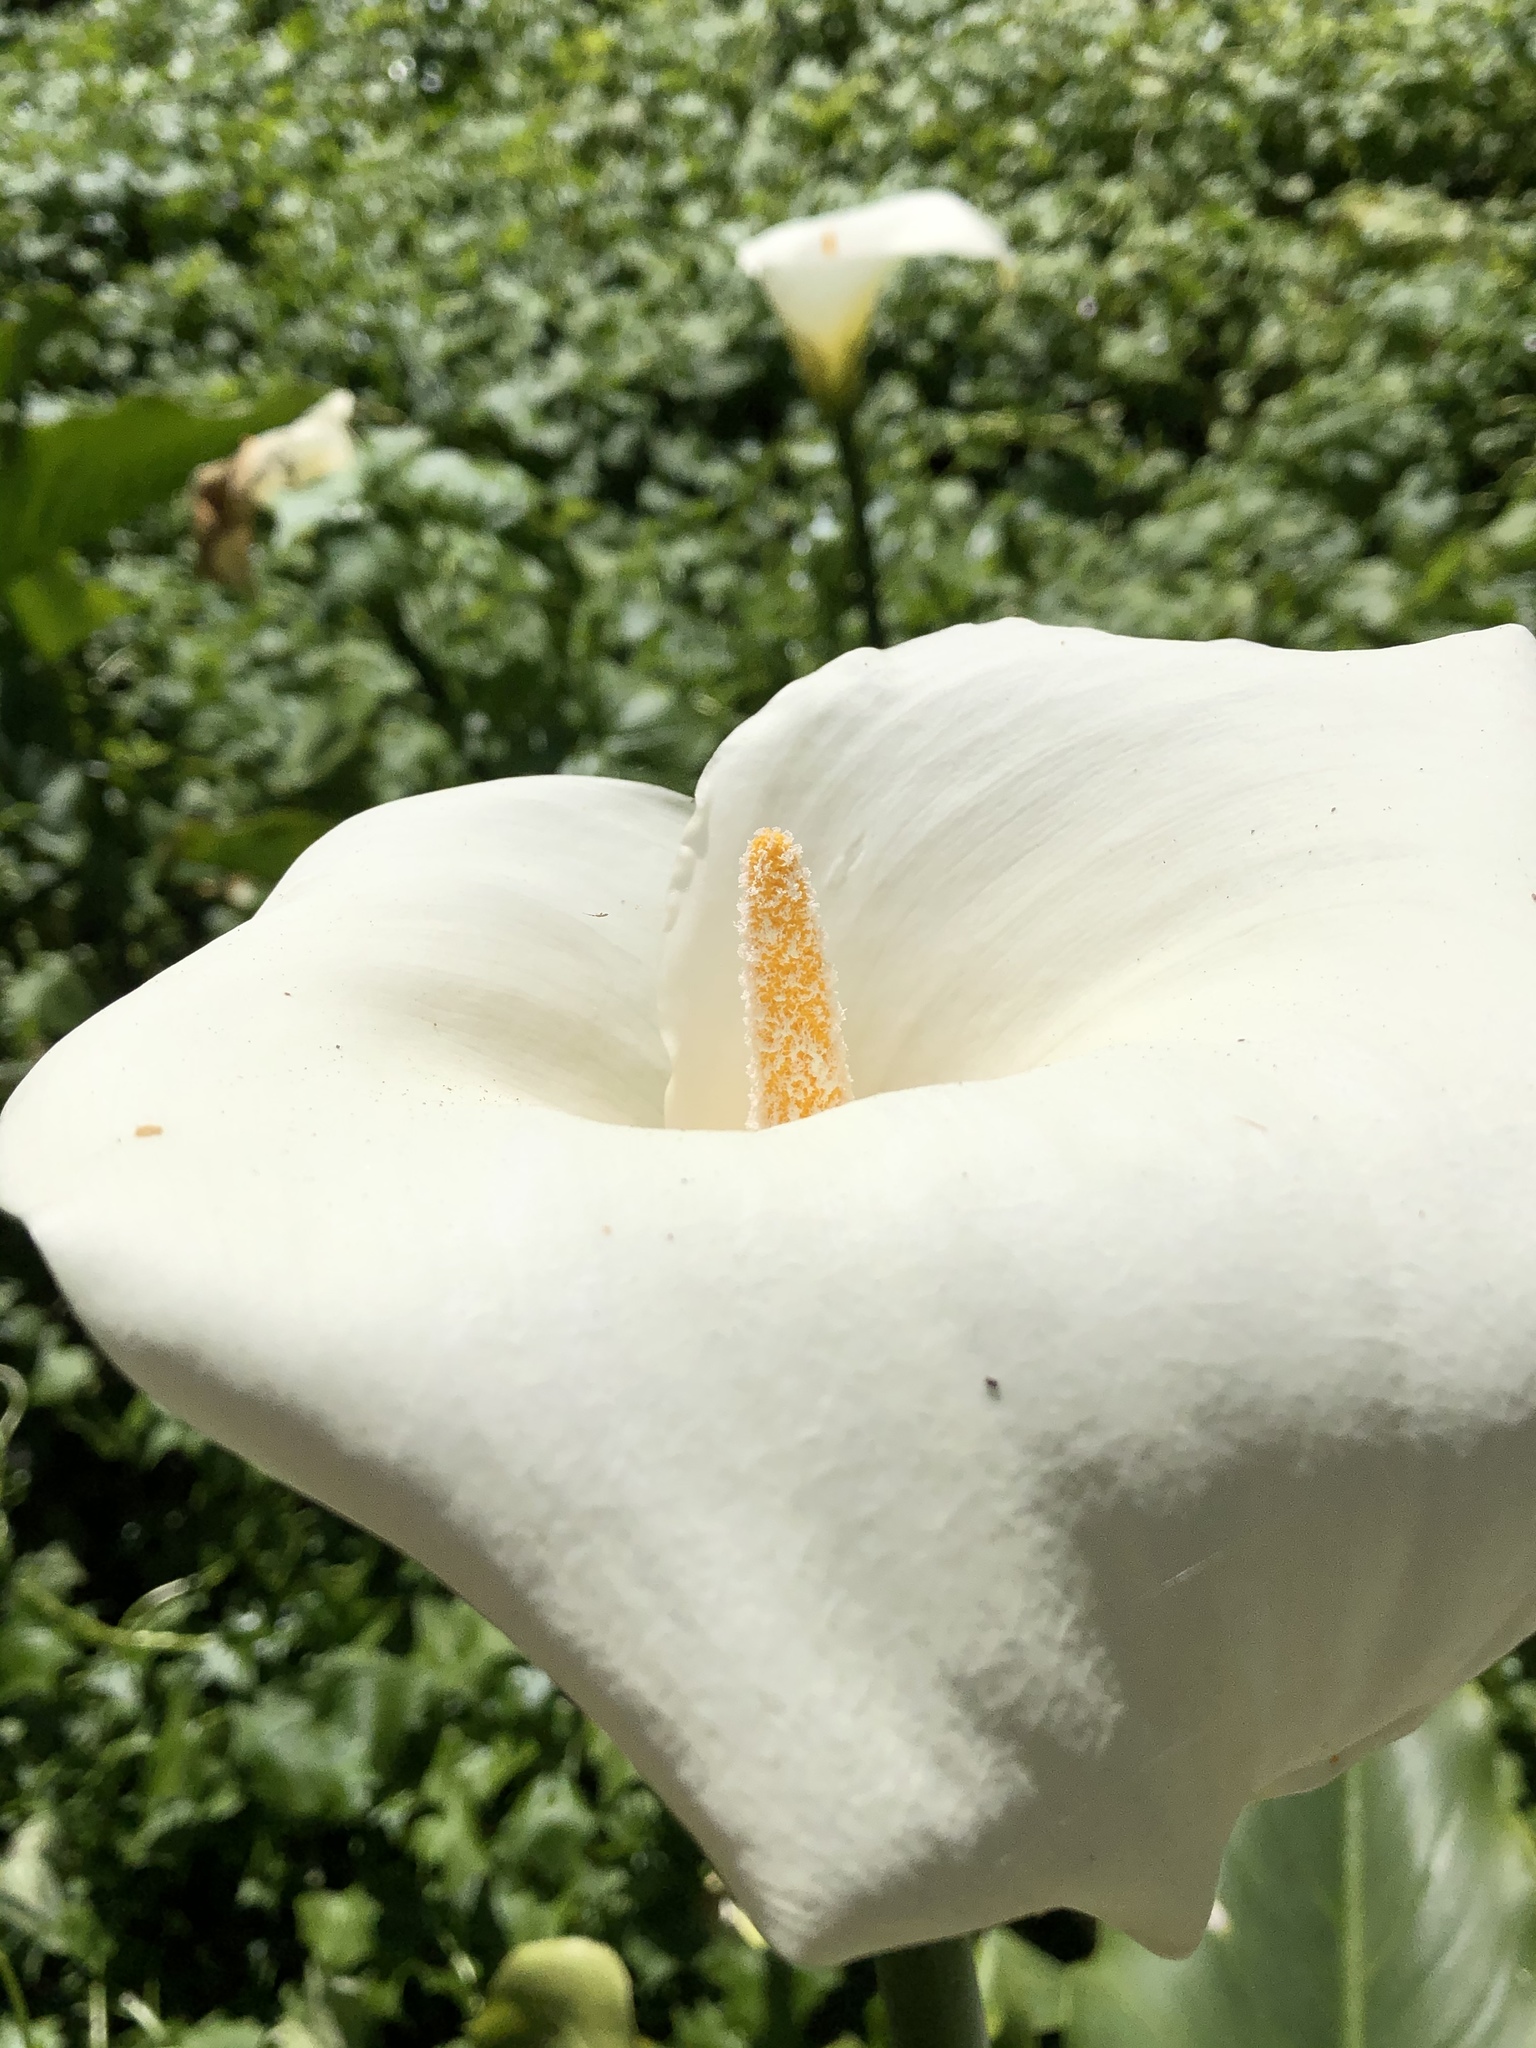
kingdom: Plantae
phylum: Tracheophyta
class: Liliopsida
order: Alismatales
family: Araceae
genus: Zantedeschia
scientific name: Zantedeschia aethiopica
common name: Altar-lily
